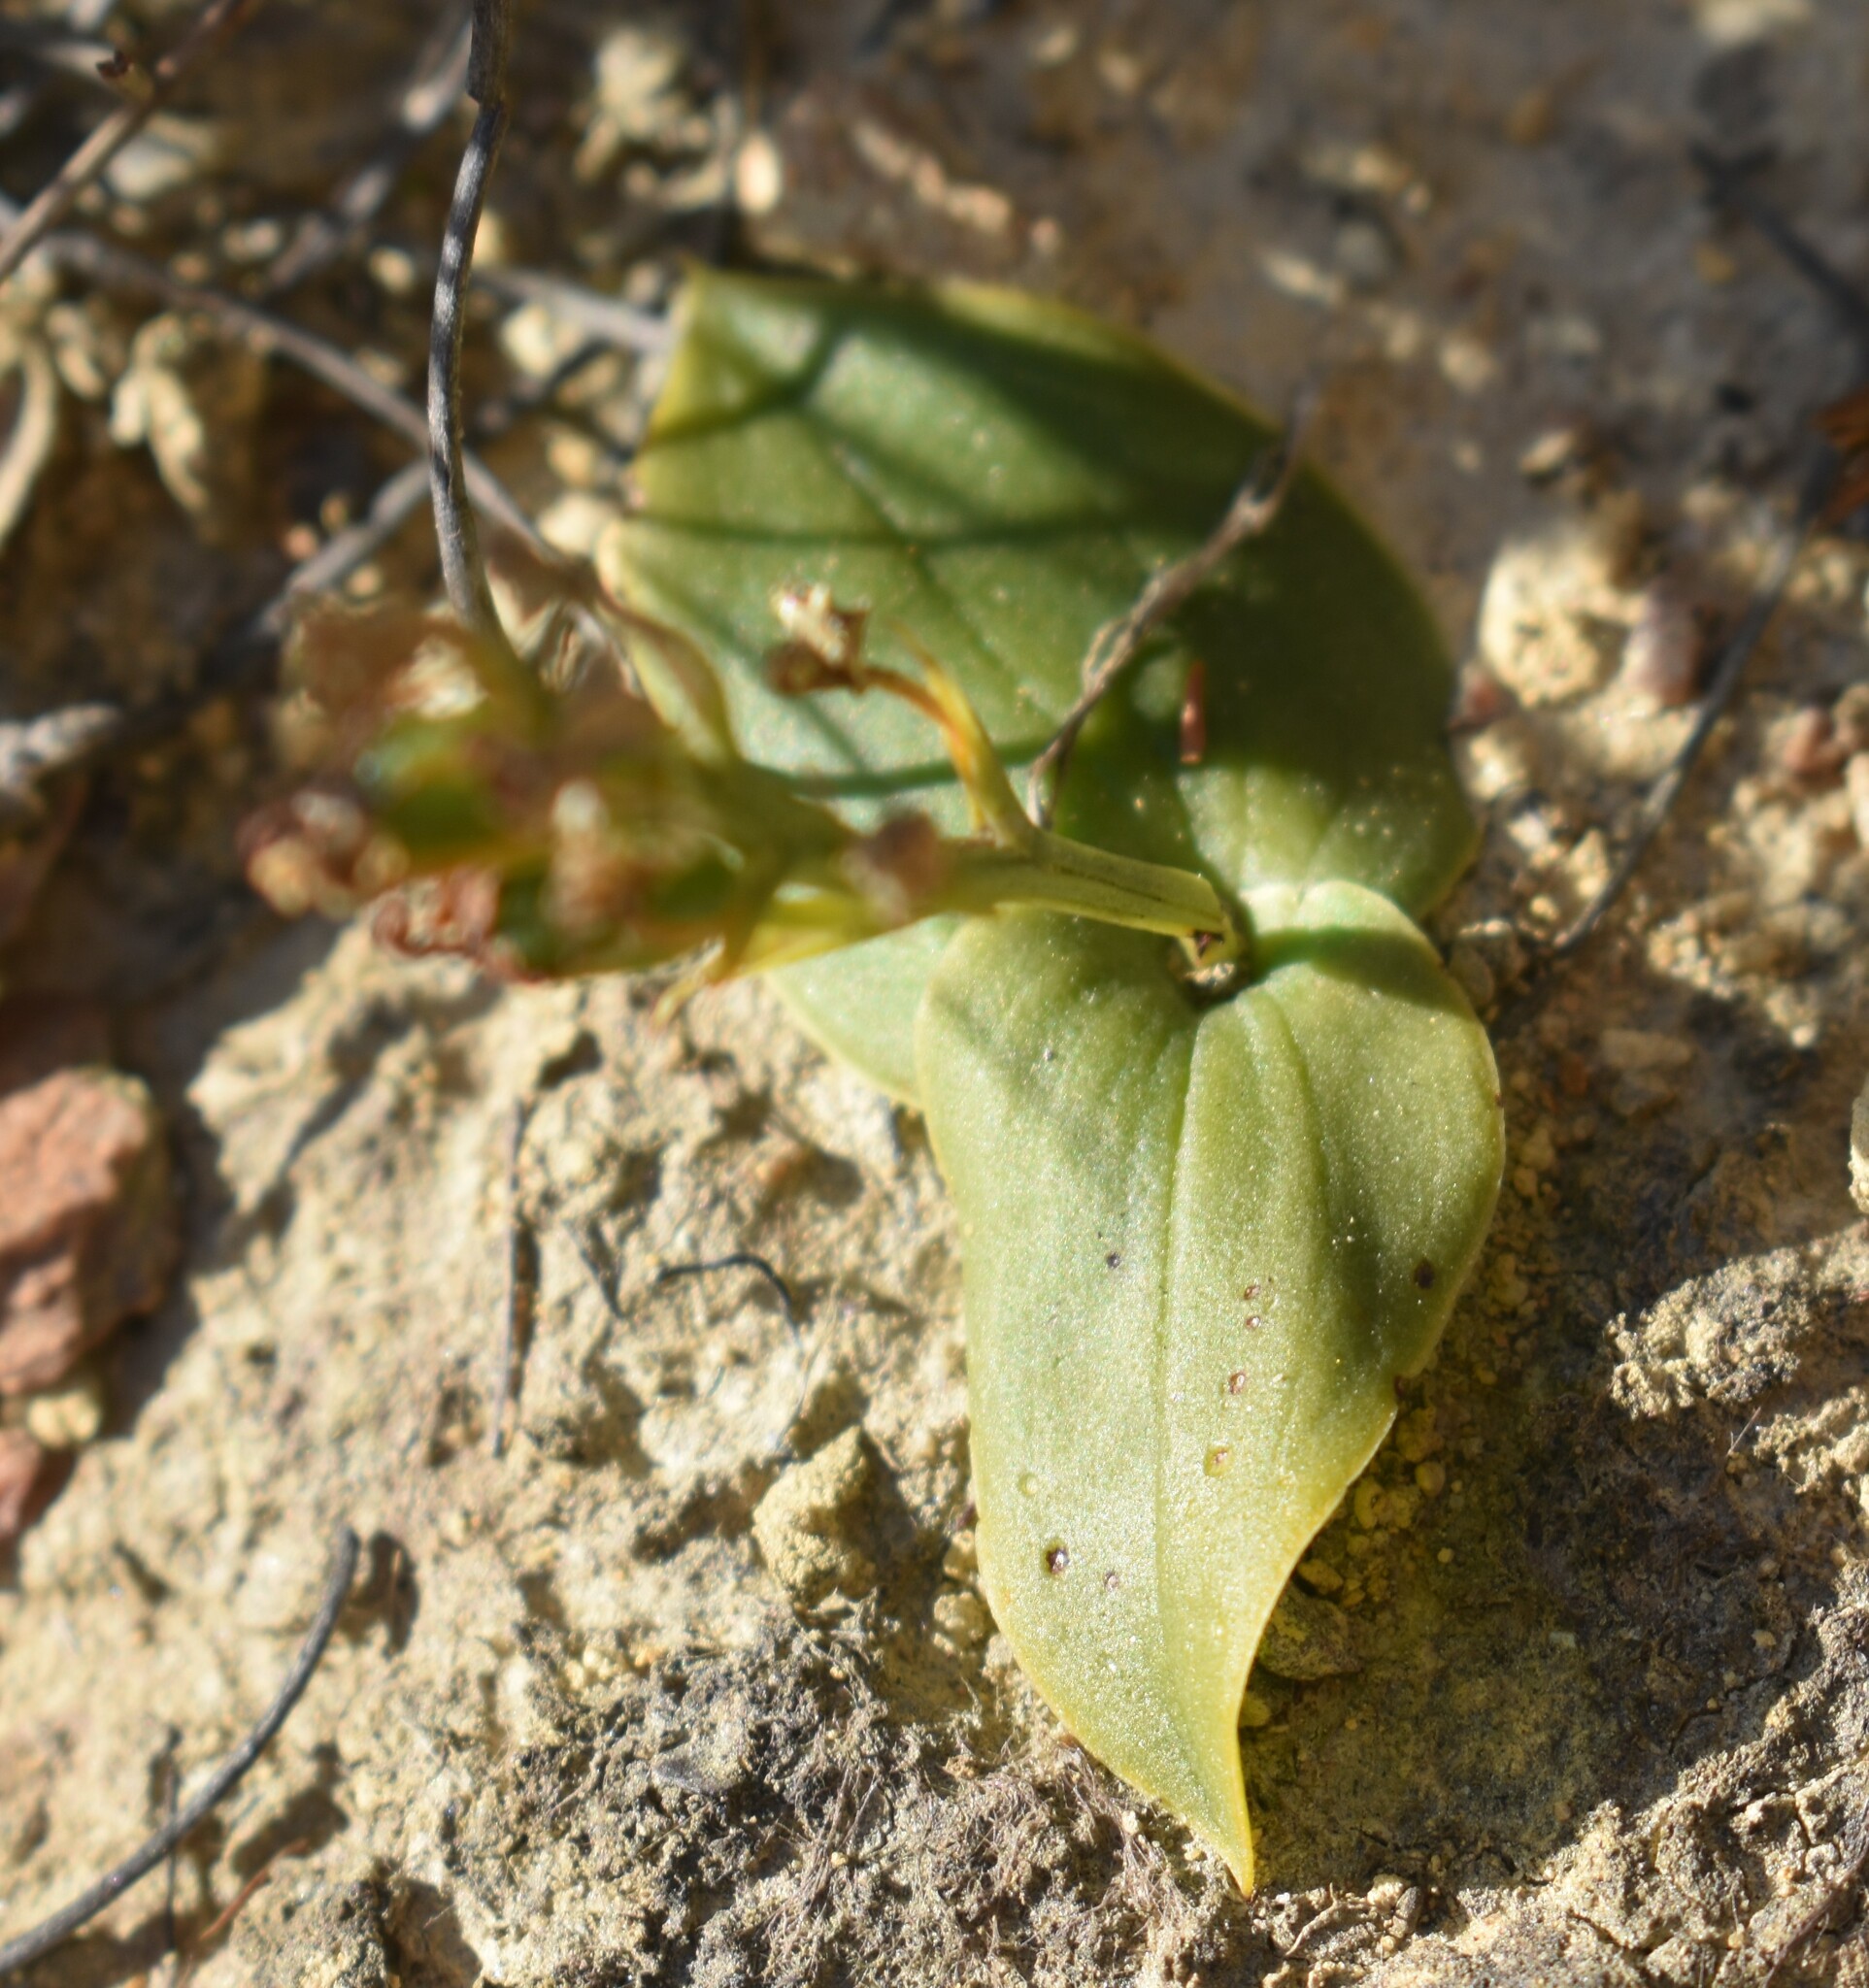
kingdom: Plantae
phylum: Tracheophyta
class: Liliopsida
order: Asparagales
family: Orchidaceae
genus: Liparis
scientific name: Liparis capensis
